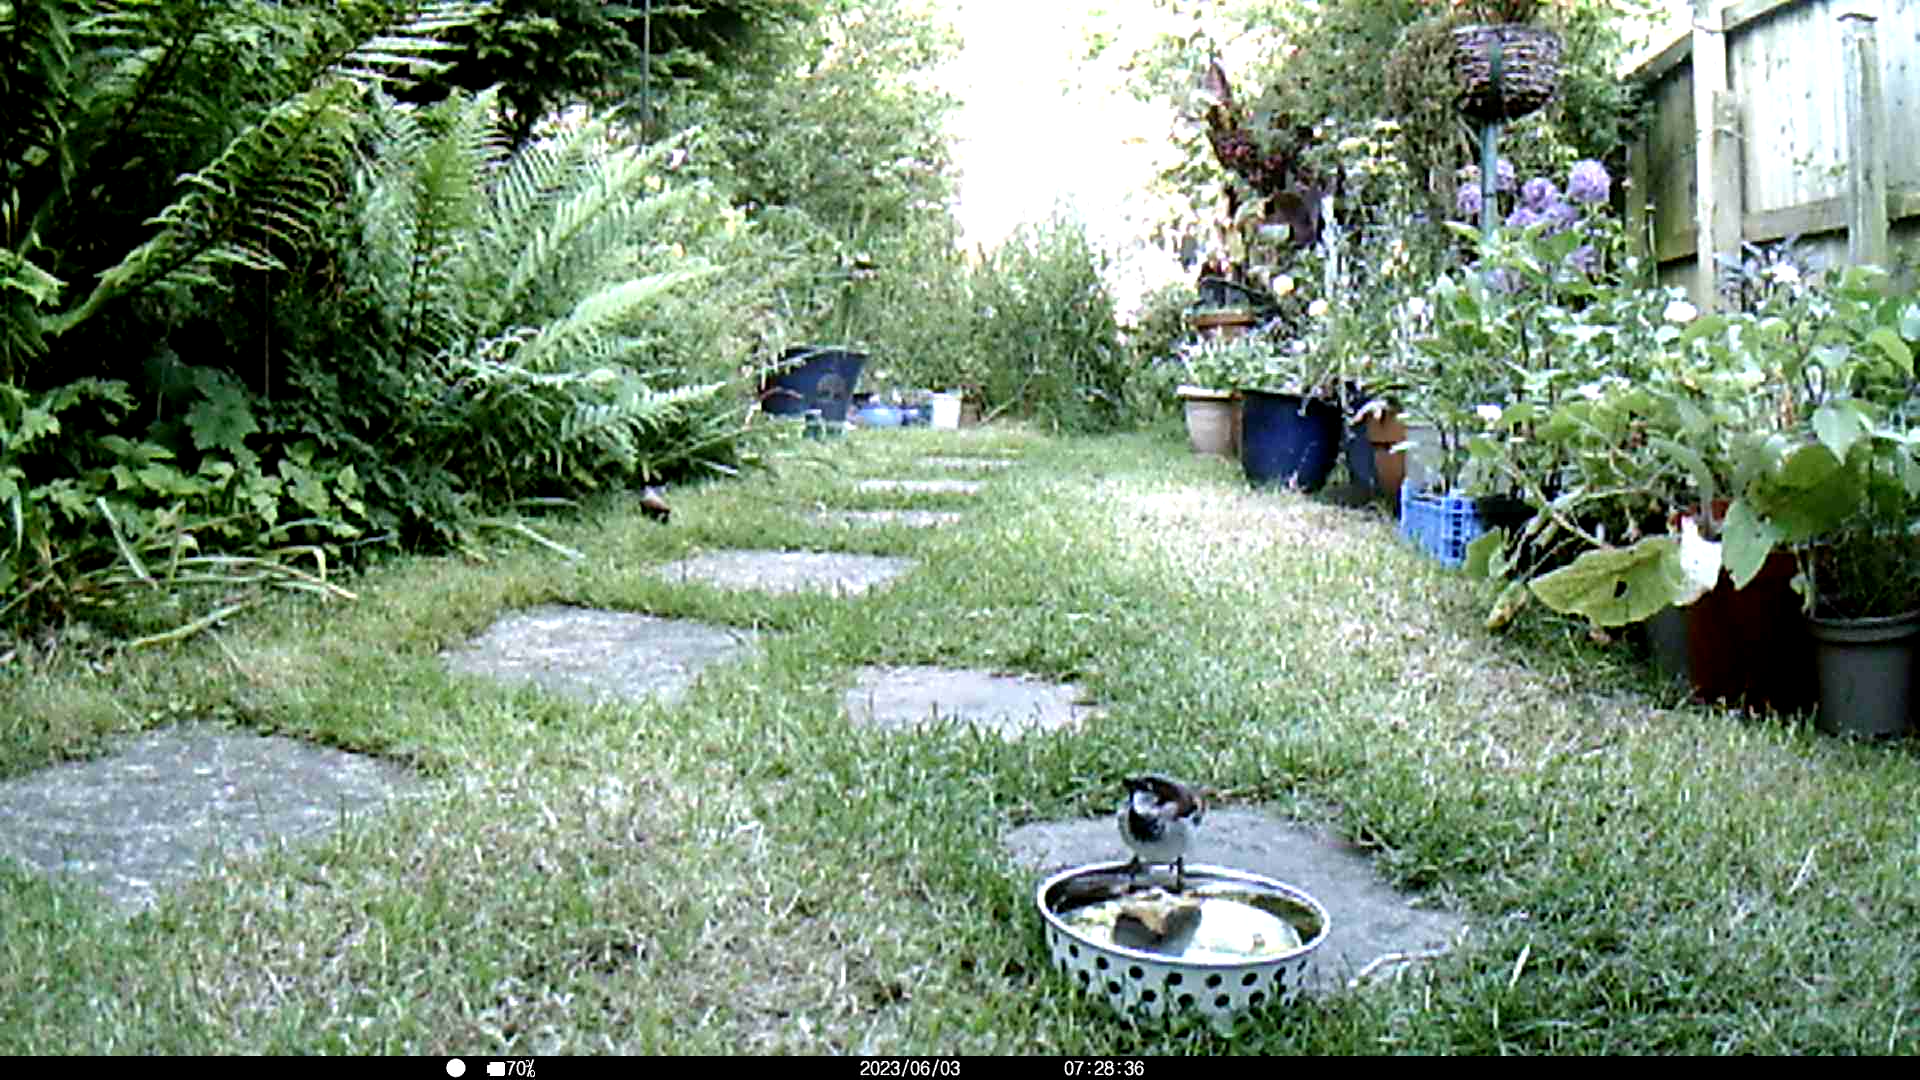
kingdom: Animalia
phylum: Chordata
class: Aves
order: Passeriformes
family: Passeridae
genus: Passer
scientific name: Passer domesticus
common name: House sparrow
